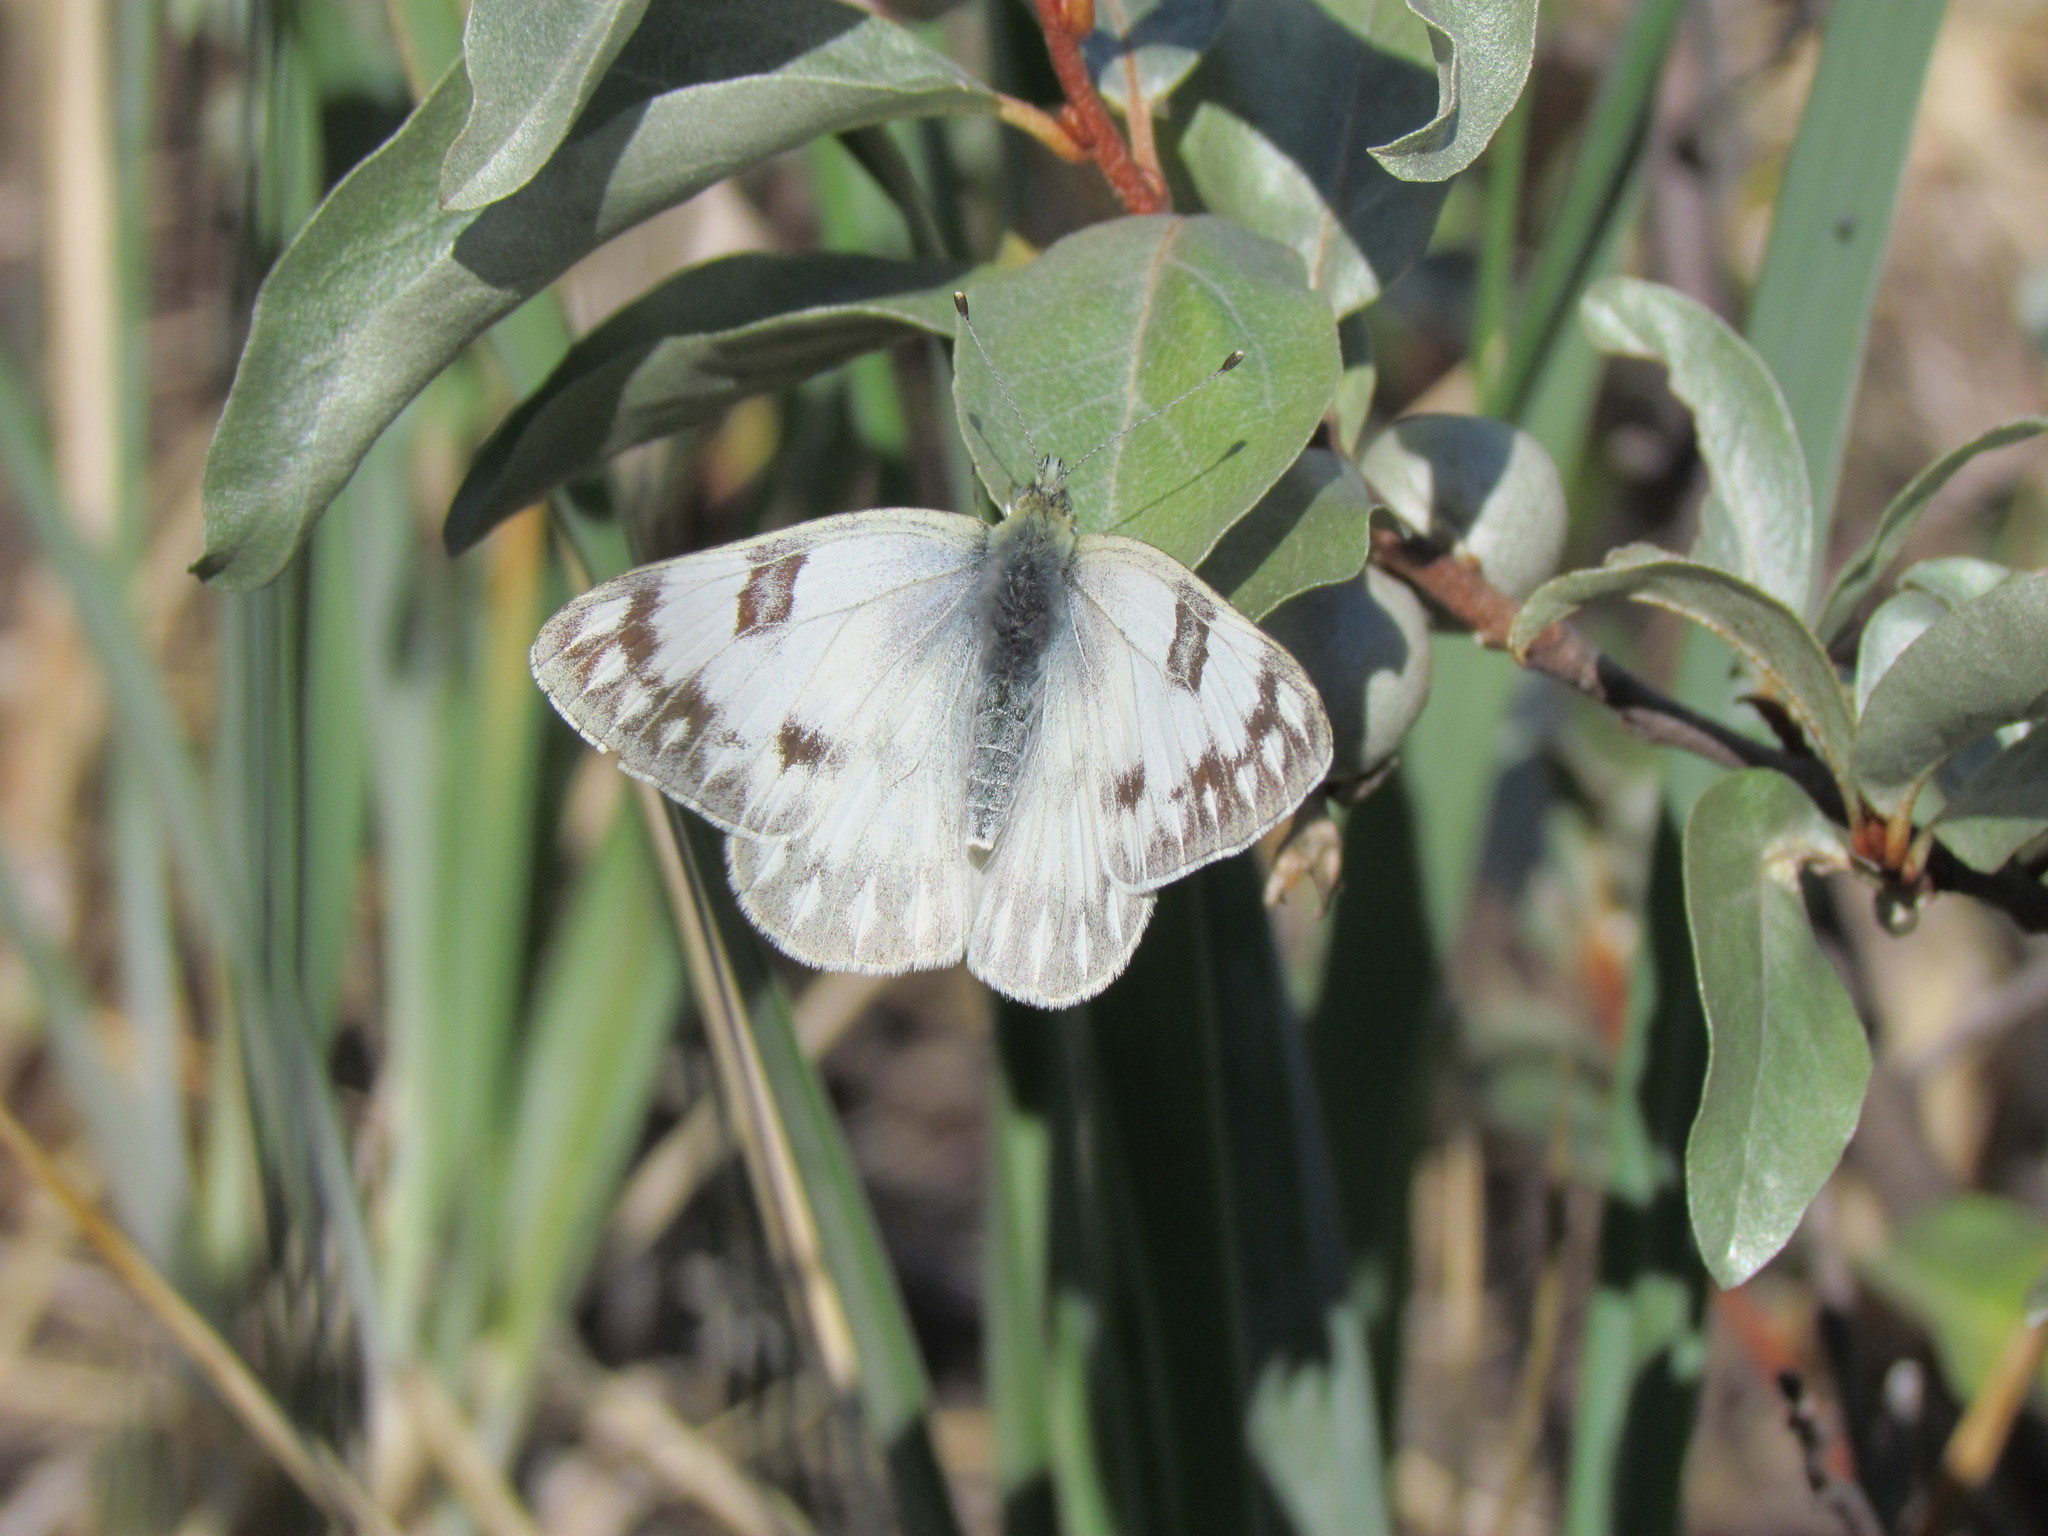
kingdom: Animalia
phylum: Arthropoda
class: Insecta
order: Lepidoptera
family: Pieridae
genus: Pontia
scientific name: Pontia occidentalis
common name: Western white
